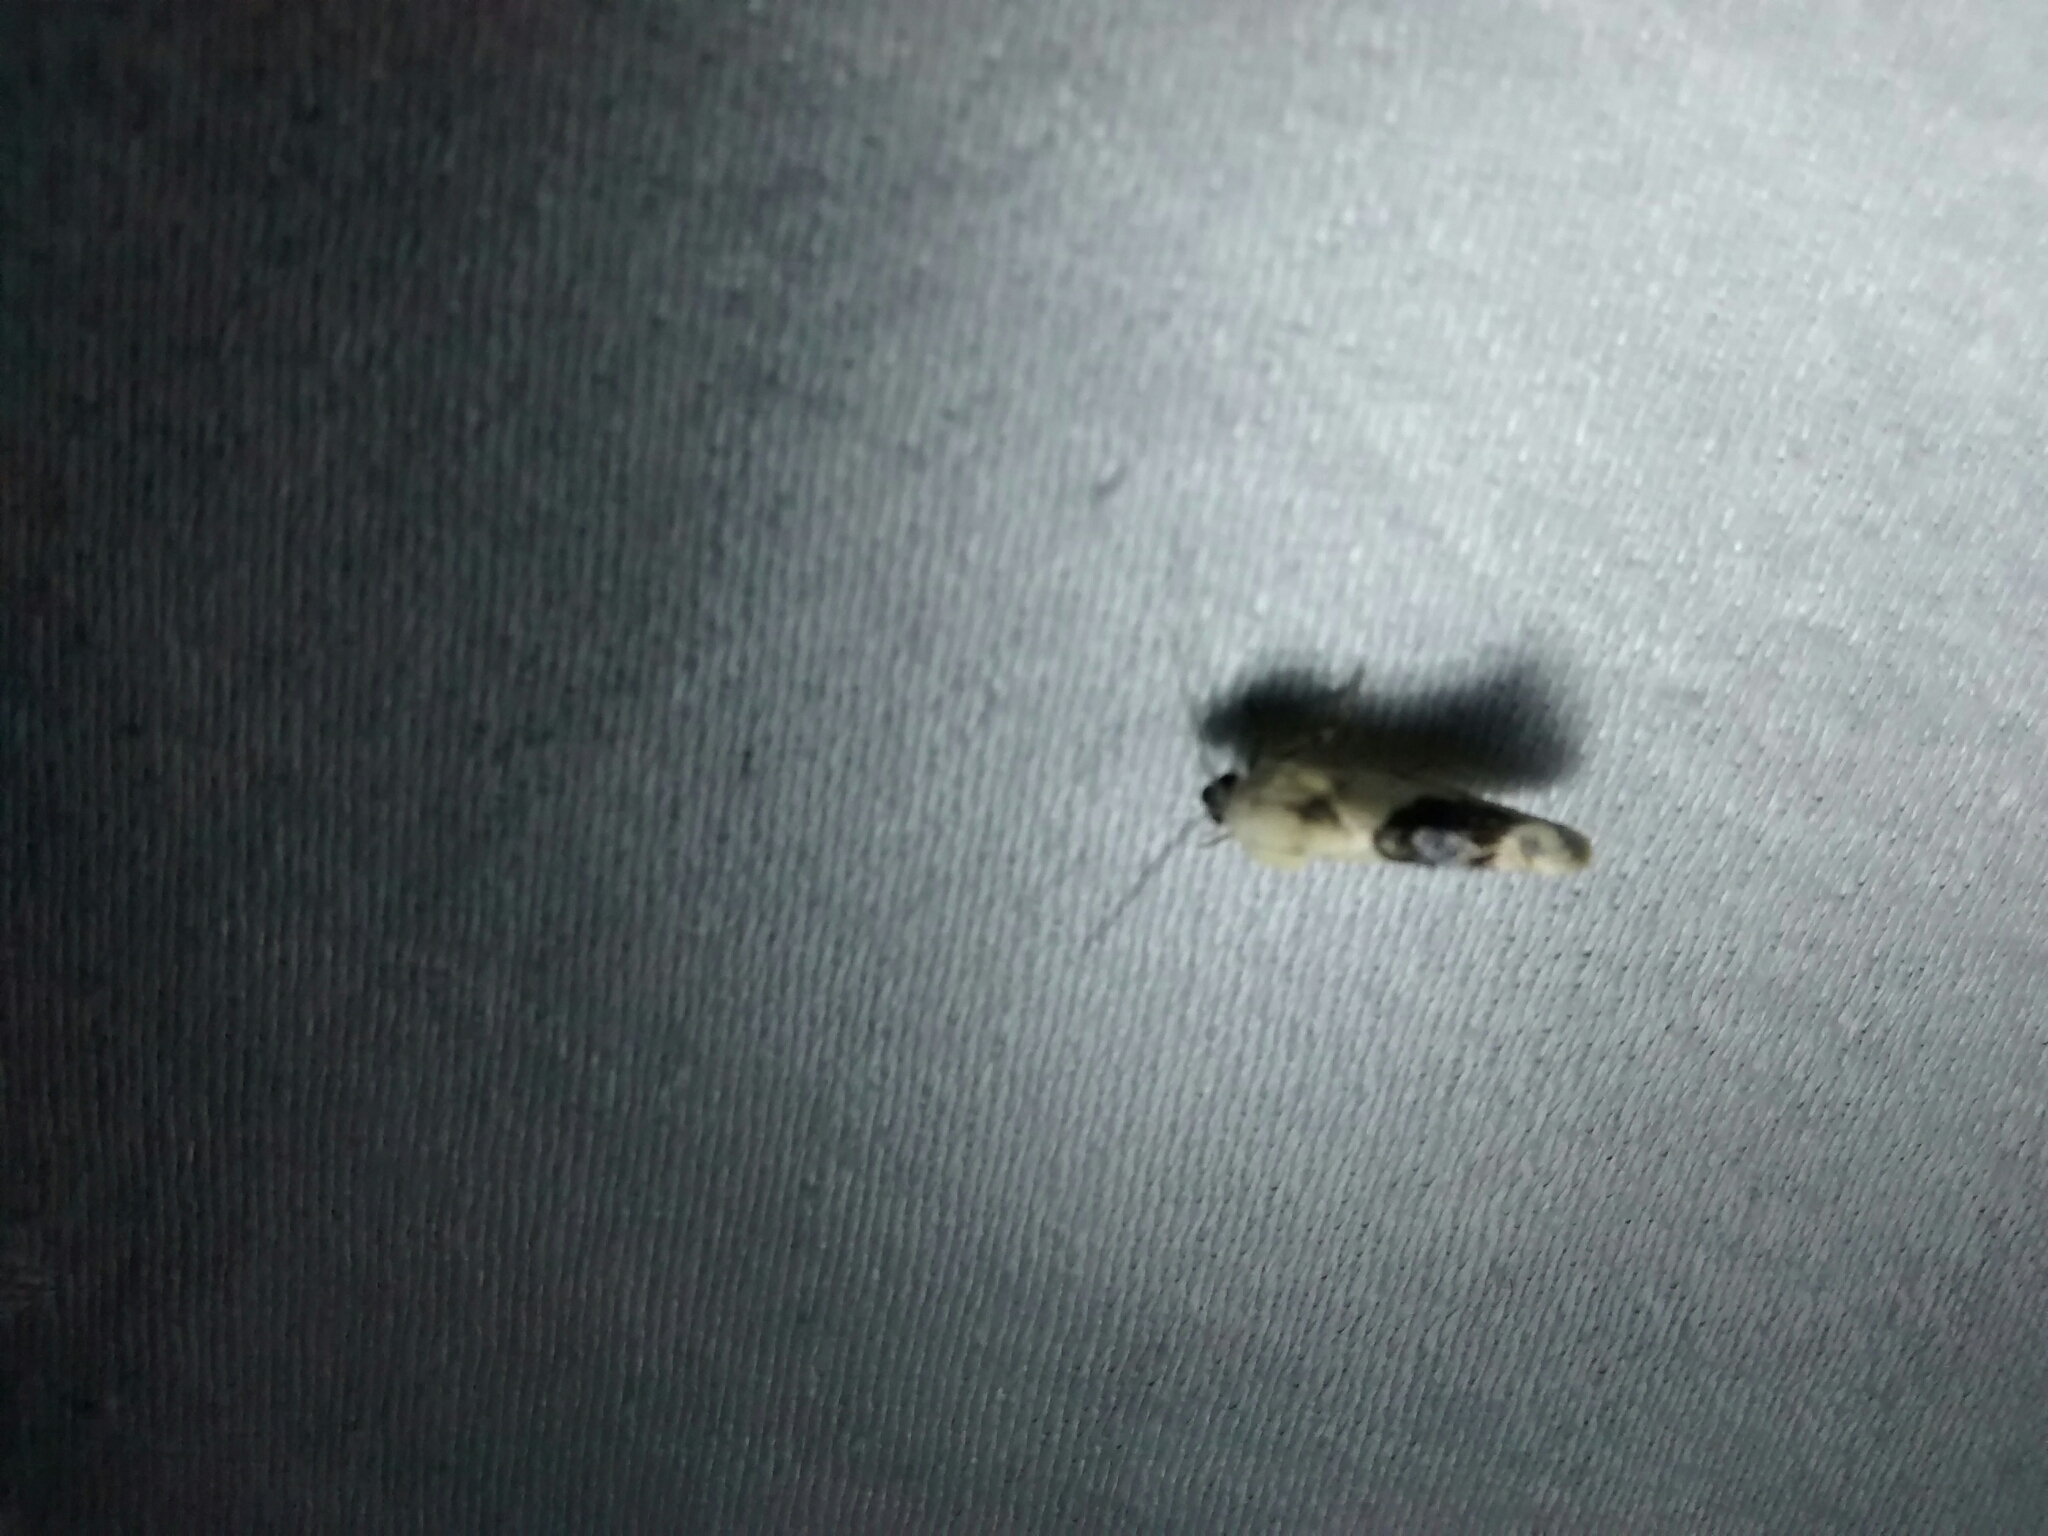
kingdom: Animalia
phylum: Arthropoda
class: Insecta
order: Lepidoptera
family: Noctuidae
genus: Acontia
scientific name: Acontia erastrioides
